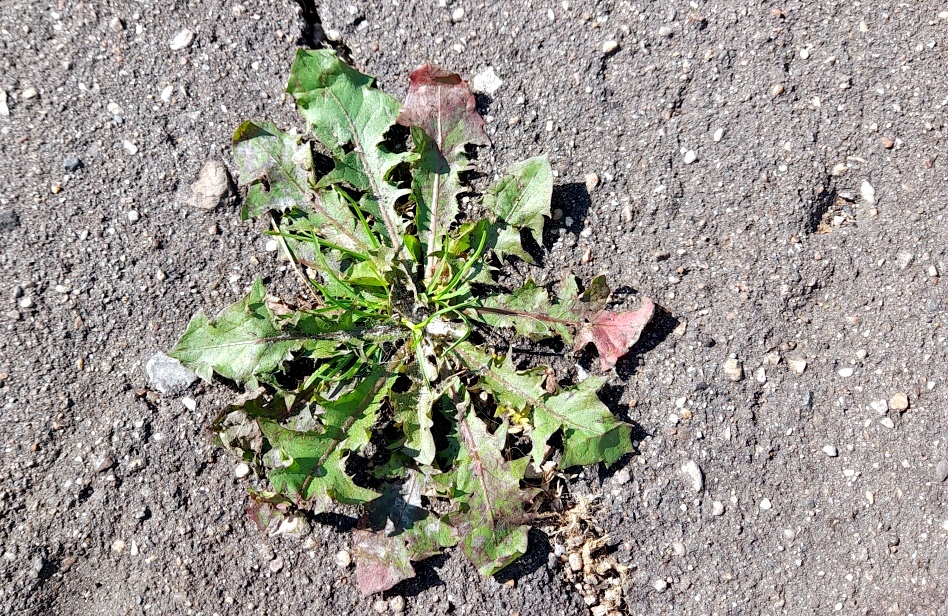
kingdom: Plantae
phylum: Tracheophyta
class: Magnoliopsida
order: Asterales
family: Asteraceae
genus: Taraxacum
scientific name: Taraxacum officinale
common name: Common dandelion
